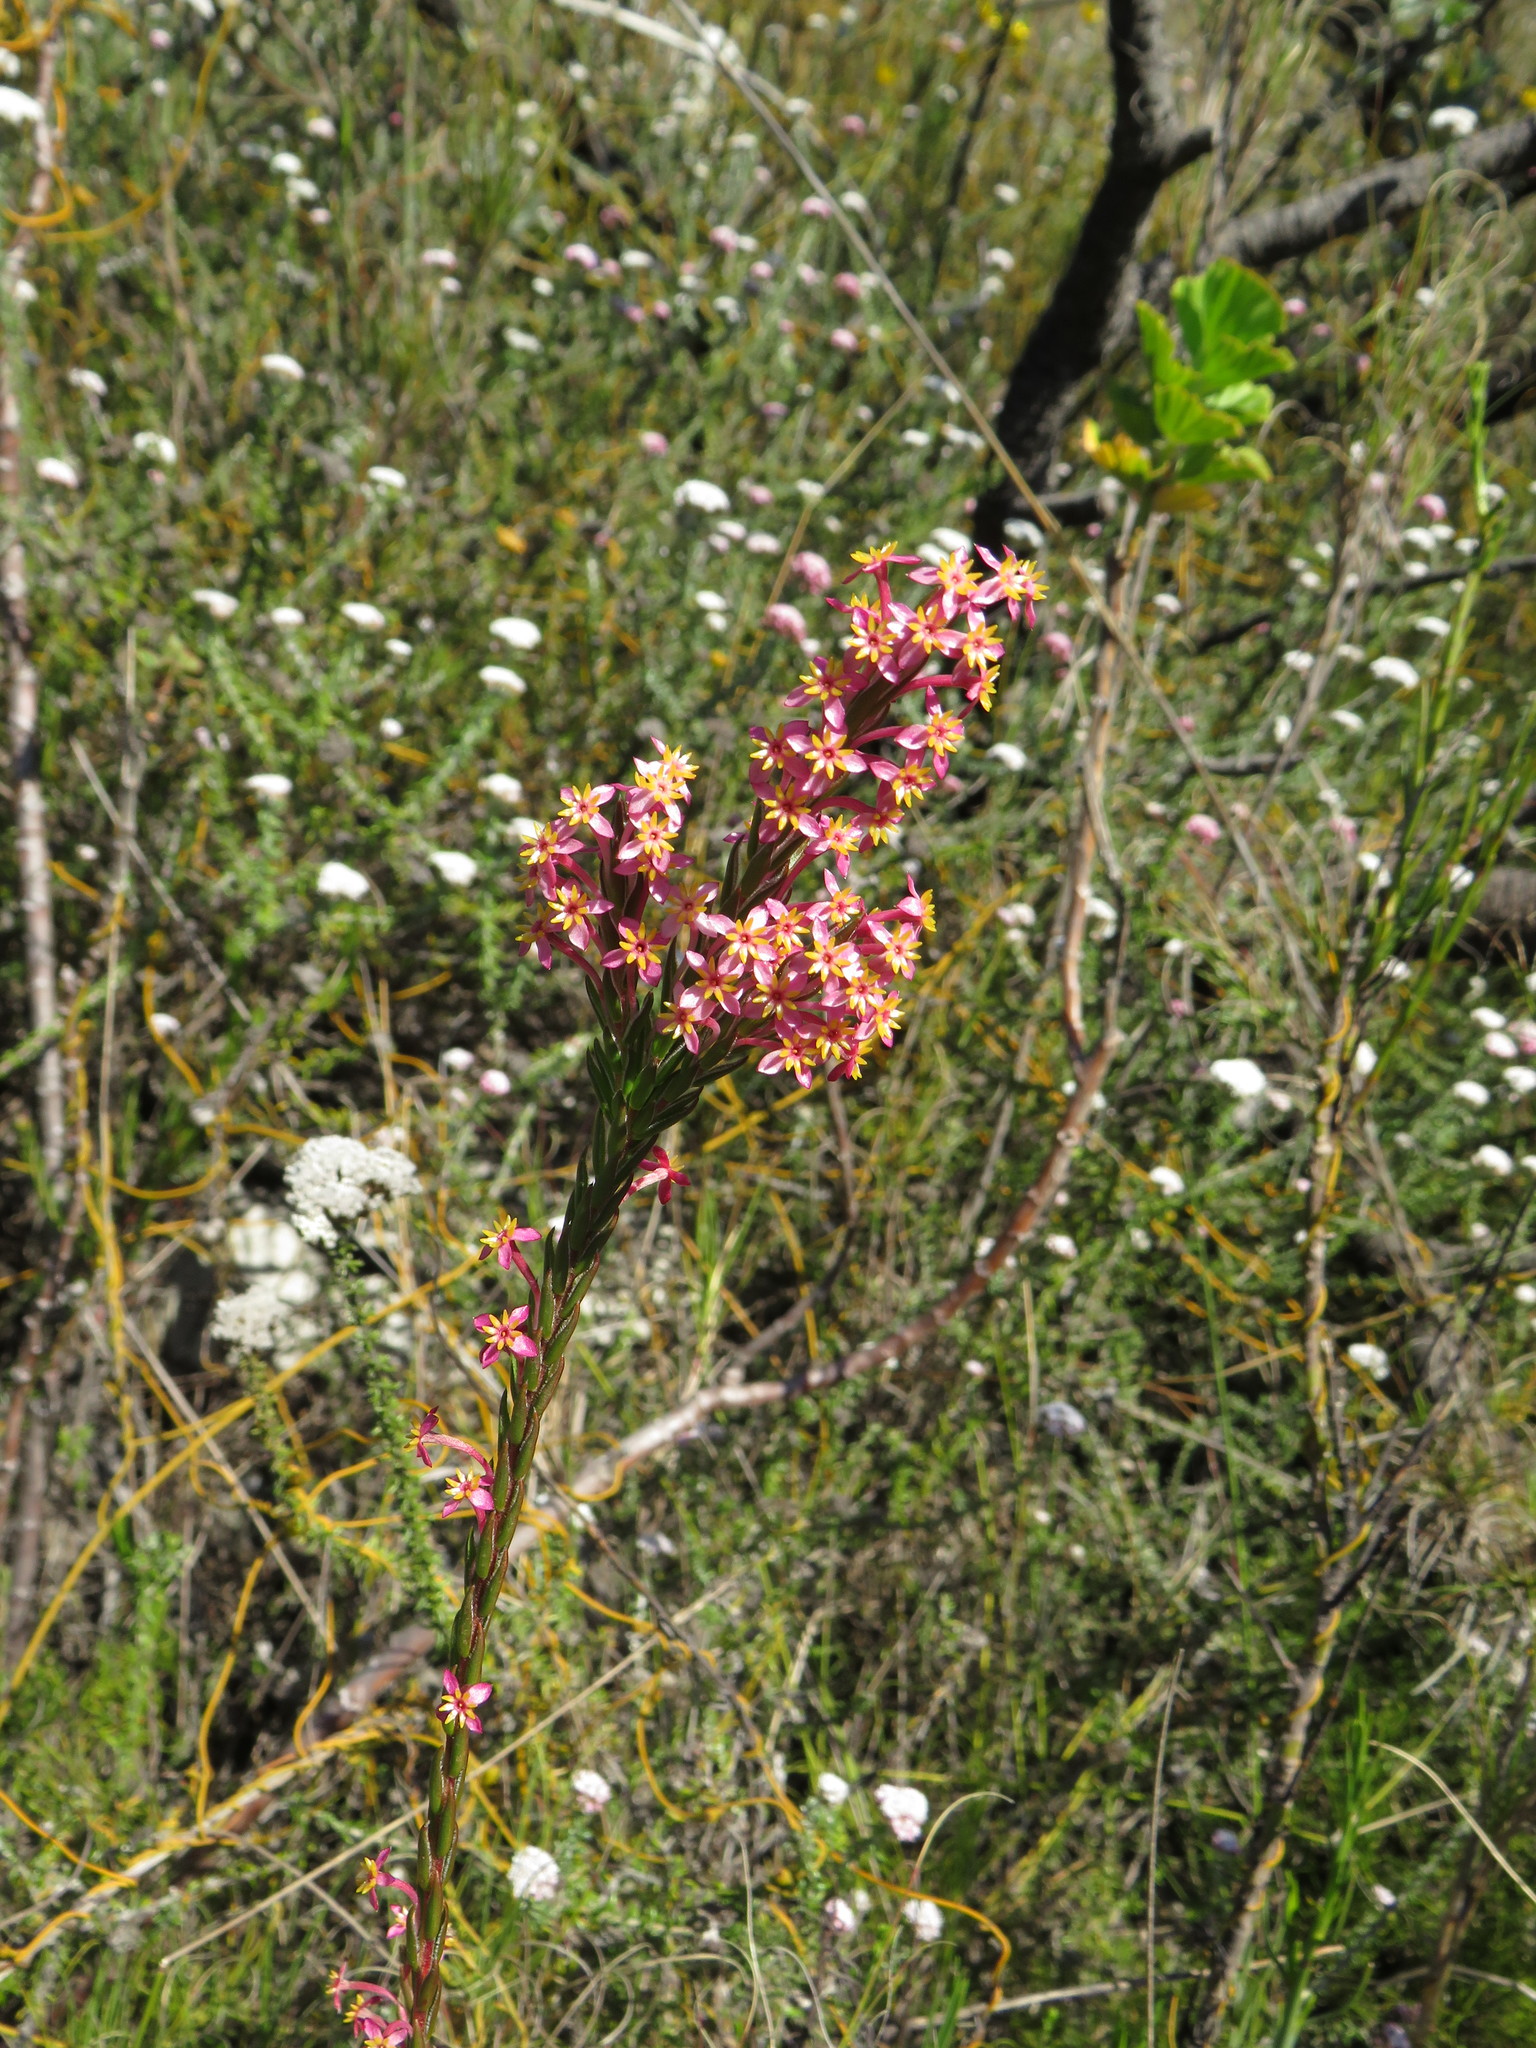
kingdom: Plantae
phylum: Tracheophyta
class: Magnoliopsida
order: Malvales
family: Thymelaeaceae
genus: Struthiola
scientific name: Struthiola ciliata
